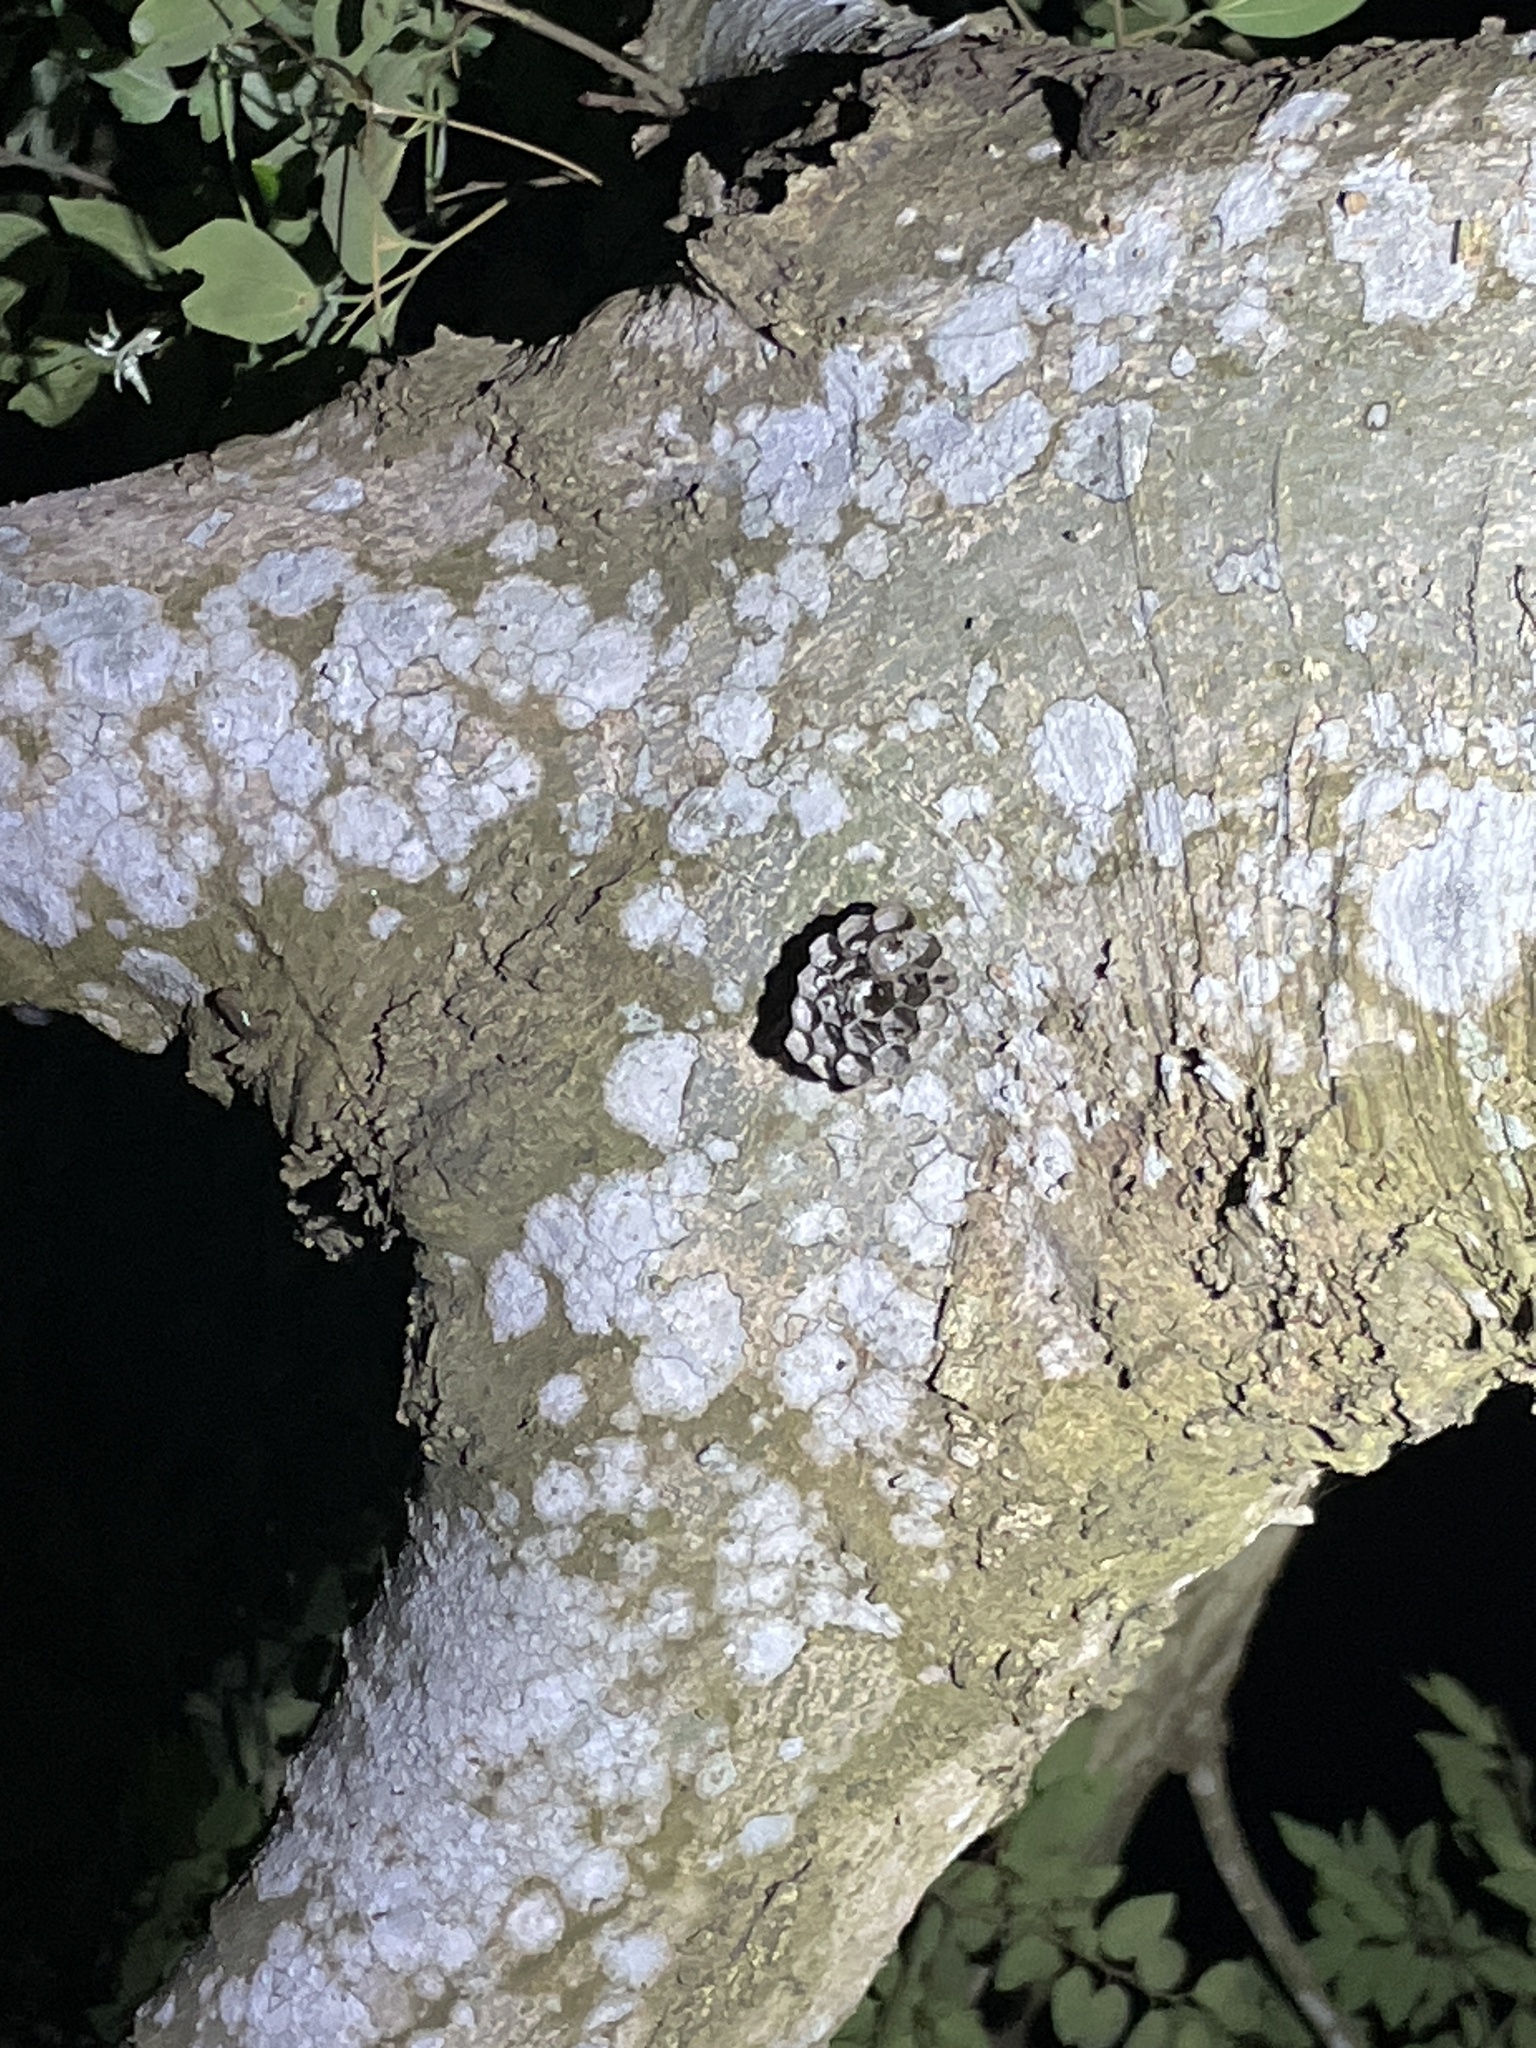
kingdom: Animalia
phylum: Arthropoda
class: Insecta
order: Hymenoptera
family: Eumenidae
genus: Polistes
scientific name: Polistes
